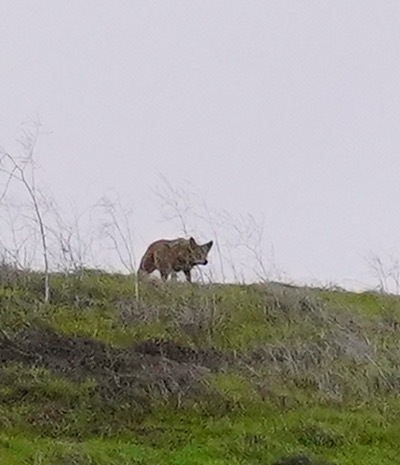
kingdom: Animalia
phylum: Chordata
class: Mammalia
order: Carnivora
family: Canidae
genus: Canis
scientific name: Canis latrans
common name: Coyote
